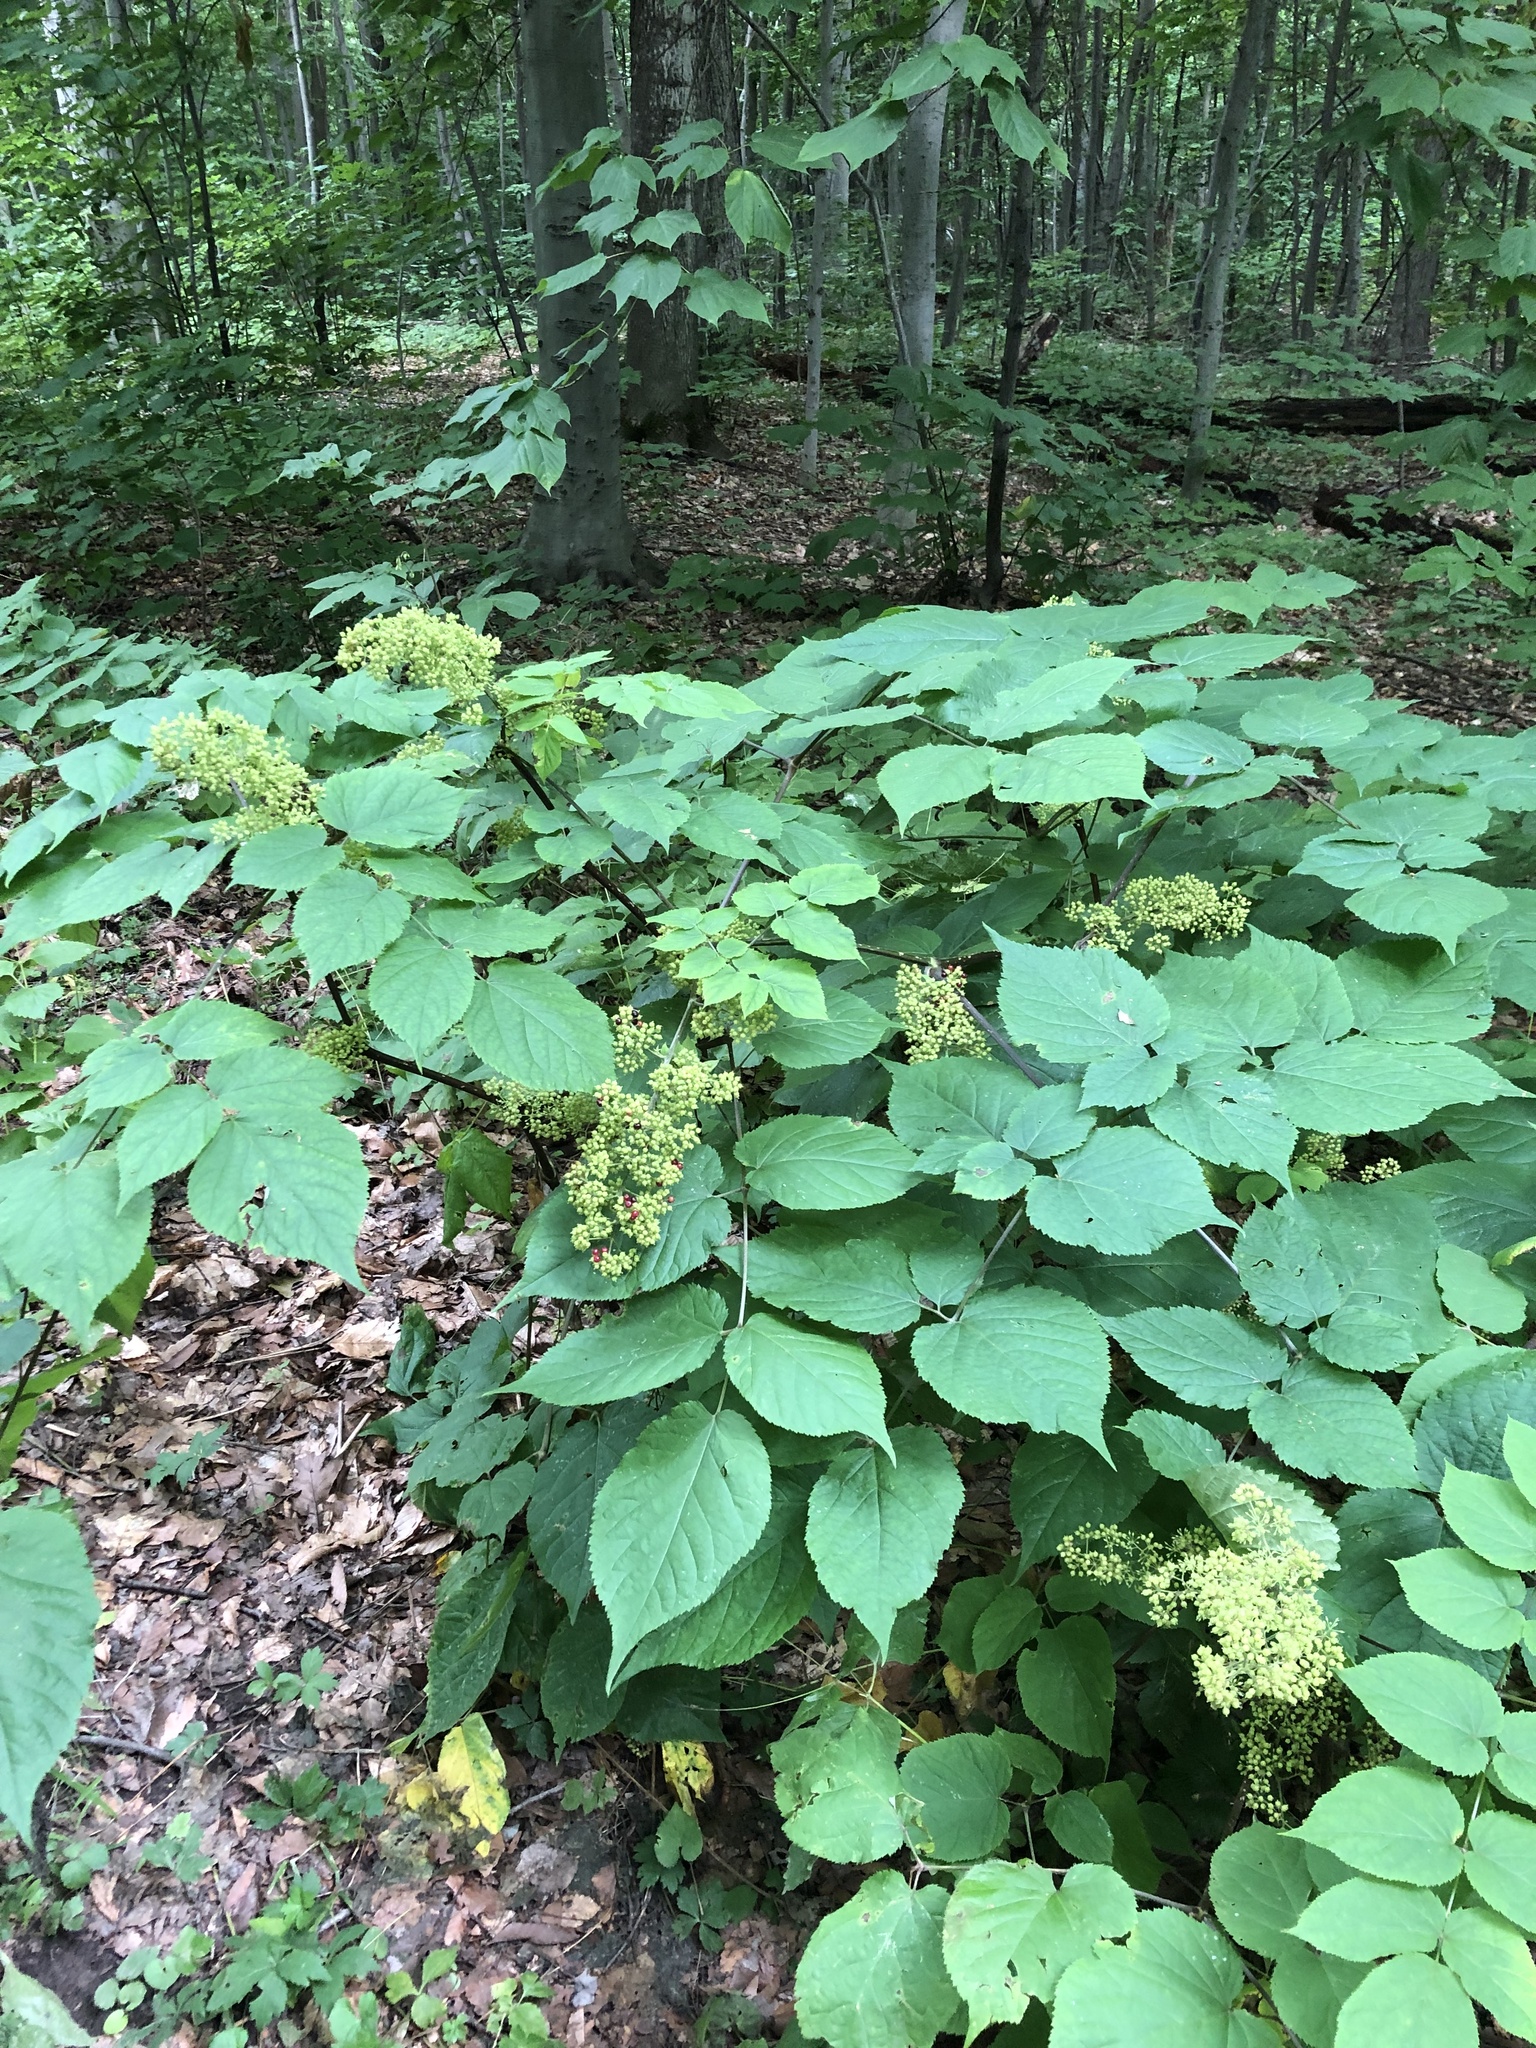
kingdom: Plantae
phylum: Tracheophyta
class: Magnoliopsida
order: Apiales
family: Araliaceae
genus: Aralia
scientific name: Aralia racemosa
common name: American-spikenard
